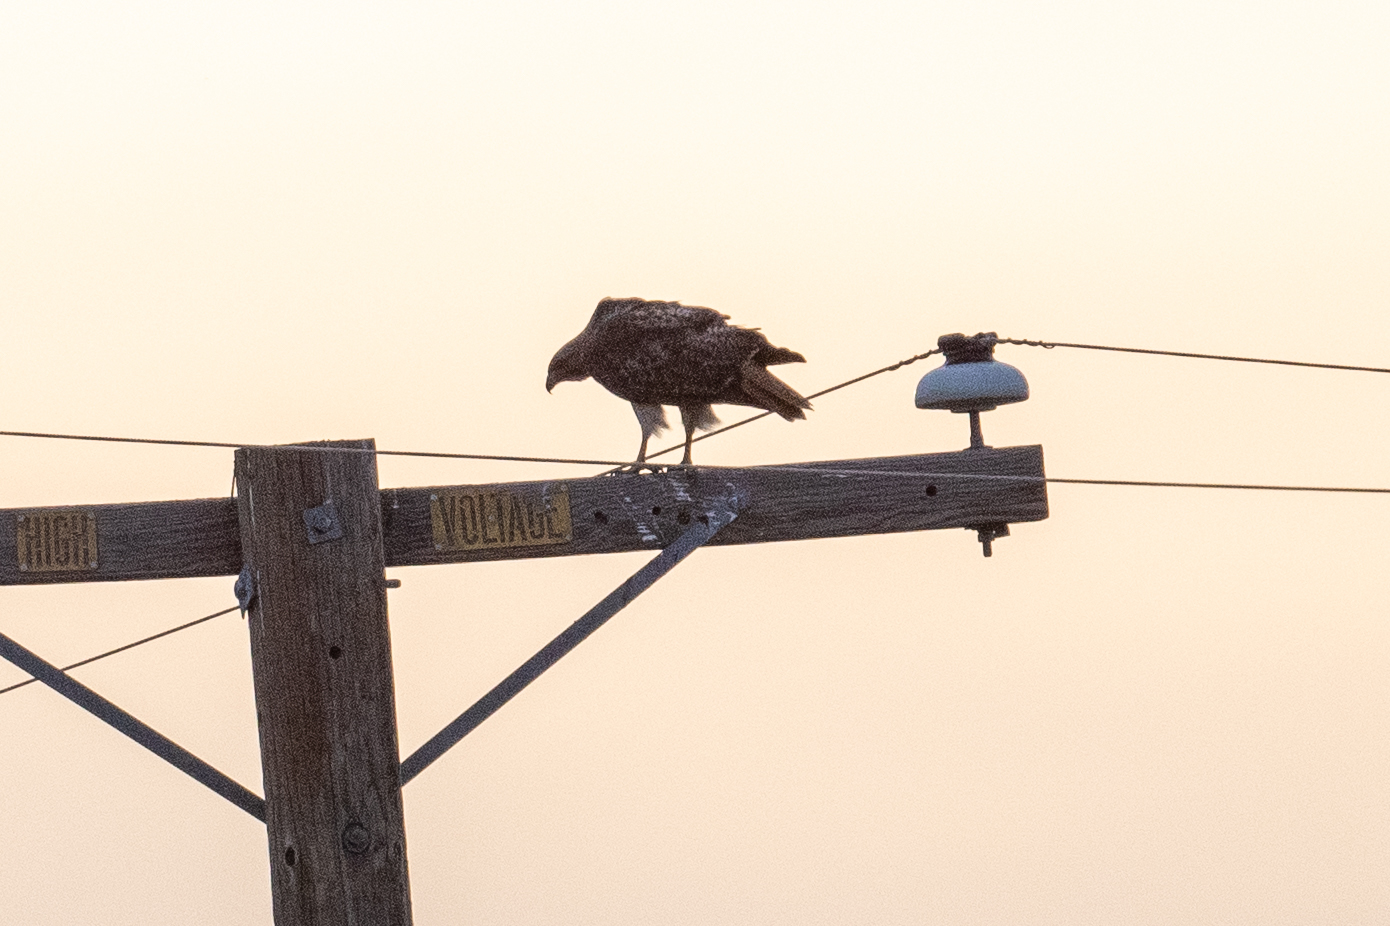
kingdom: Animalia
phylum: Chordata
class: Aves
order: Accipitriformes
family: Accipitridae
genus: Buteo
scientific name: Buteo jamaicensis
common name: Red-tailed hawk
